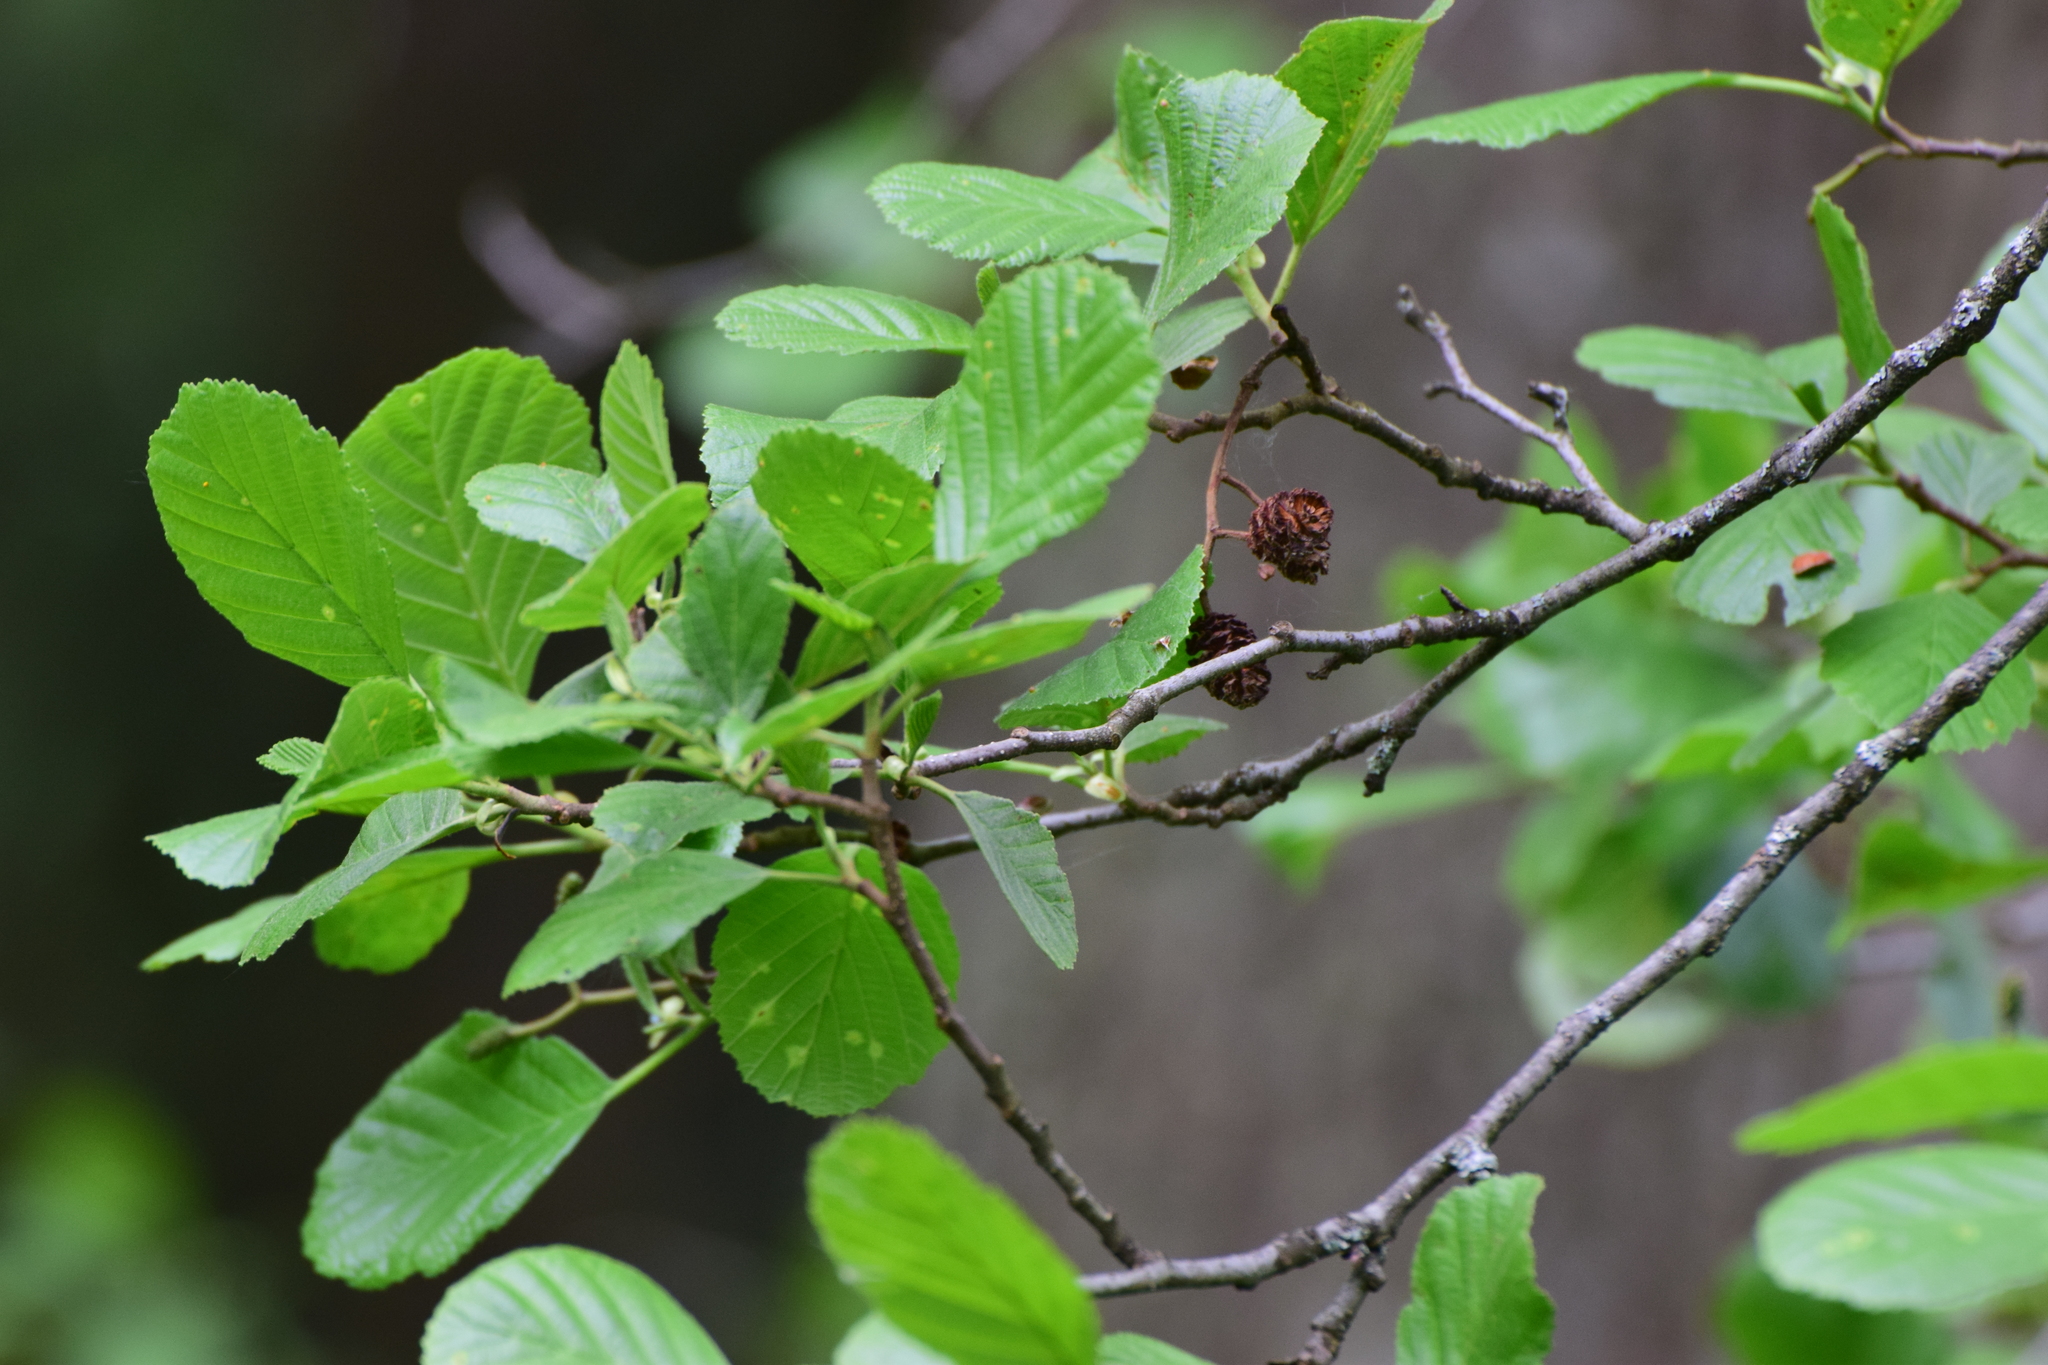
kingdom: Plantae
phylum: Tracheophyta
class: Magnoliopsida
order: Fagales
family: Betulaceae
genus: Alnus
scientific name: Alnus glutinosa
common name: Black alder
